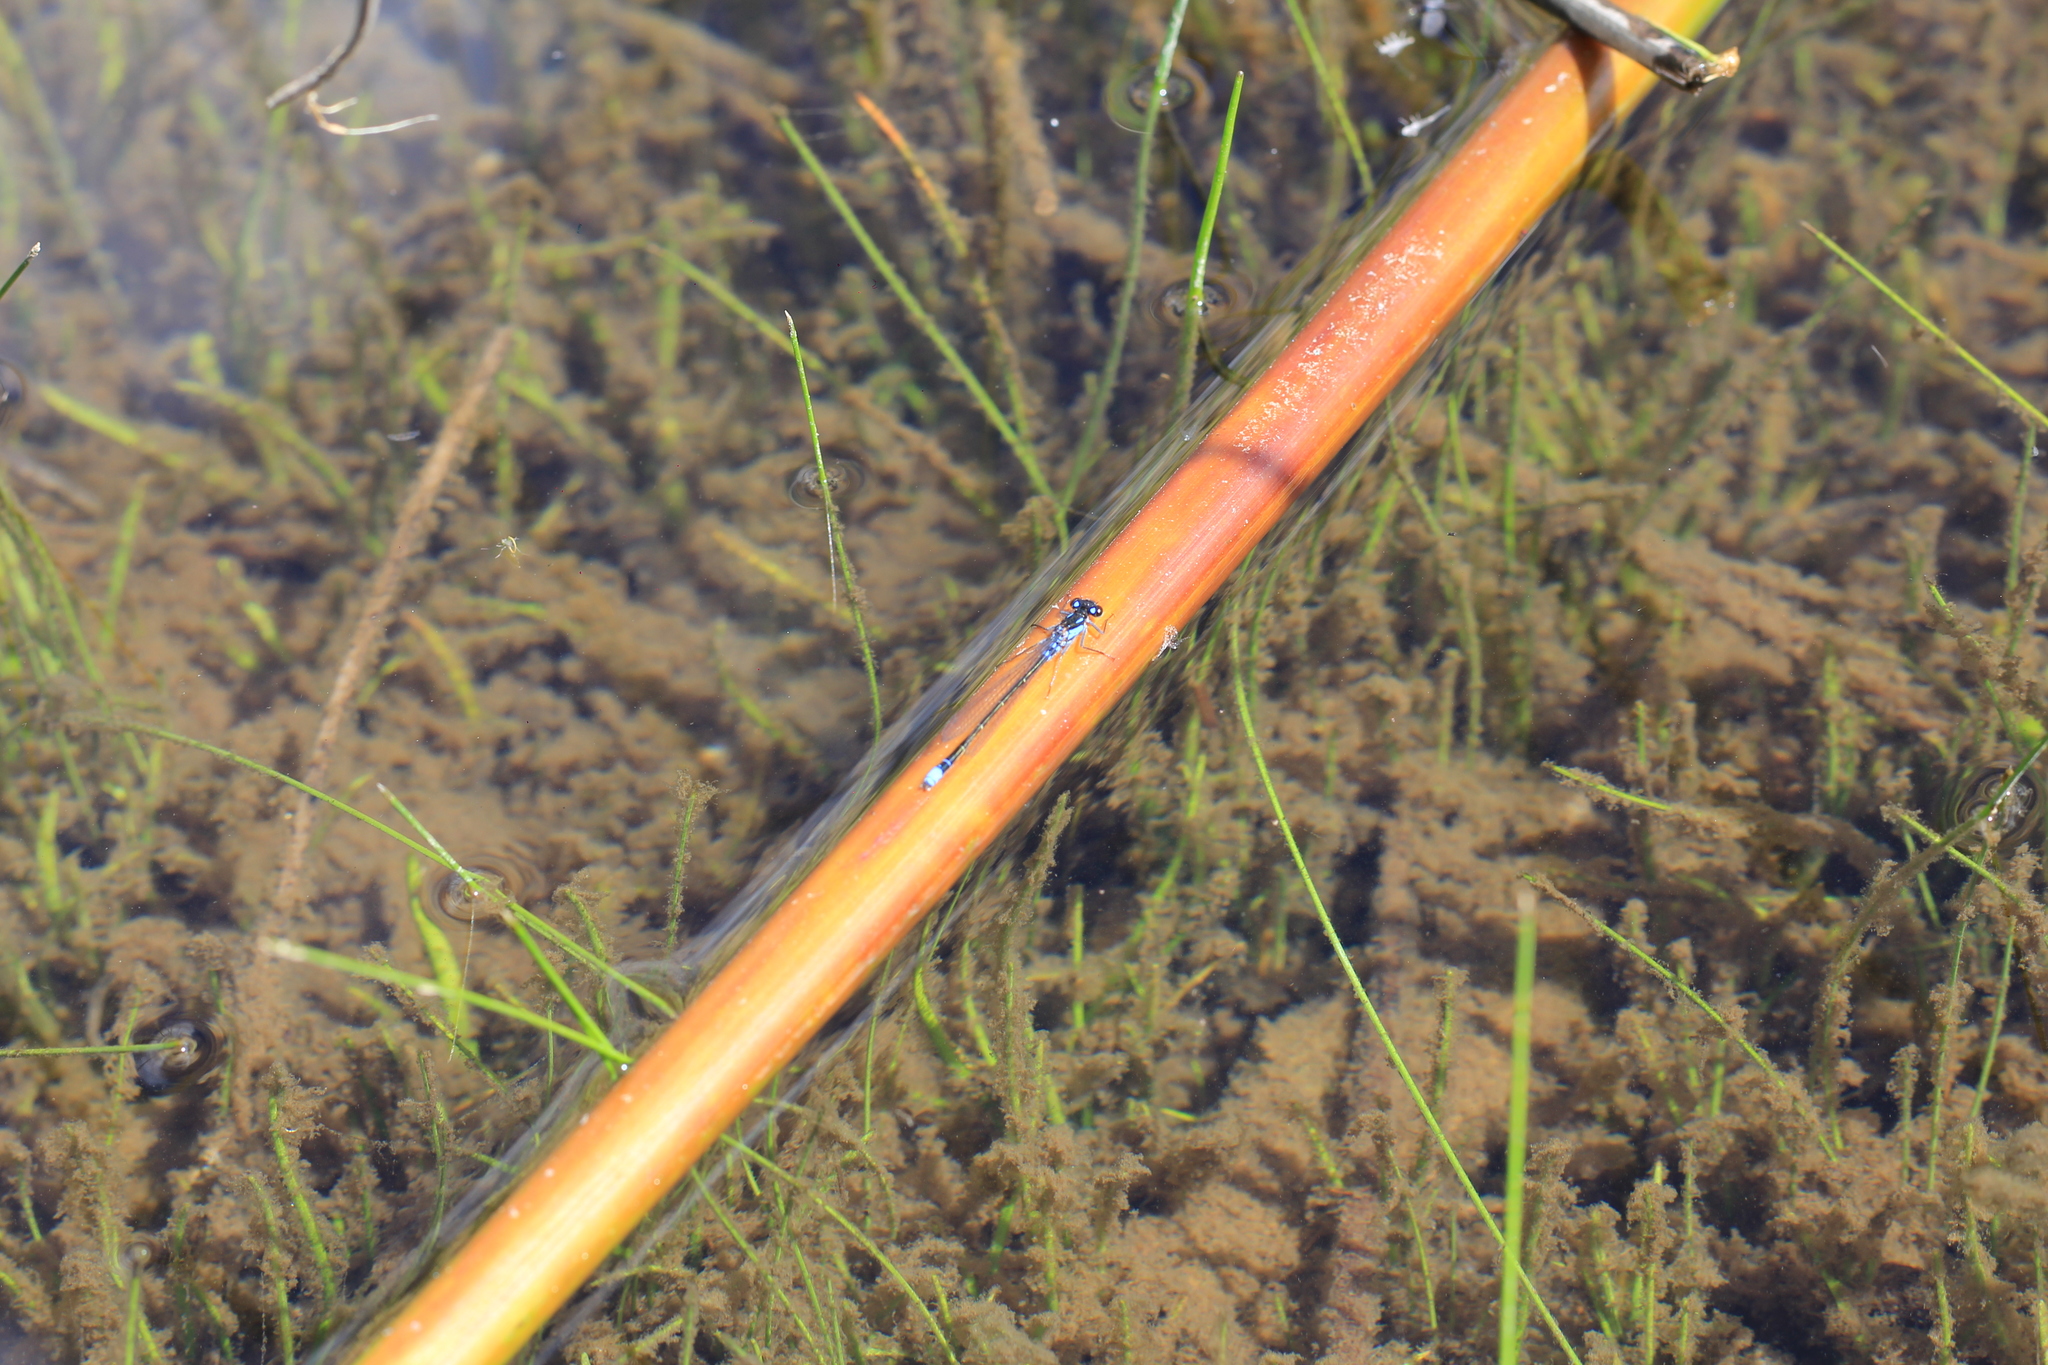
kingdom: Animalia
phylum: Arthropoda
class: Insecta
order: Odonata
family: Coenagrionidae
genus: Cyanallagma
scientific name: Cyanallagma interruptum
